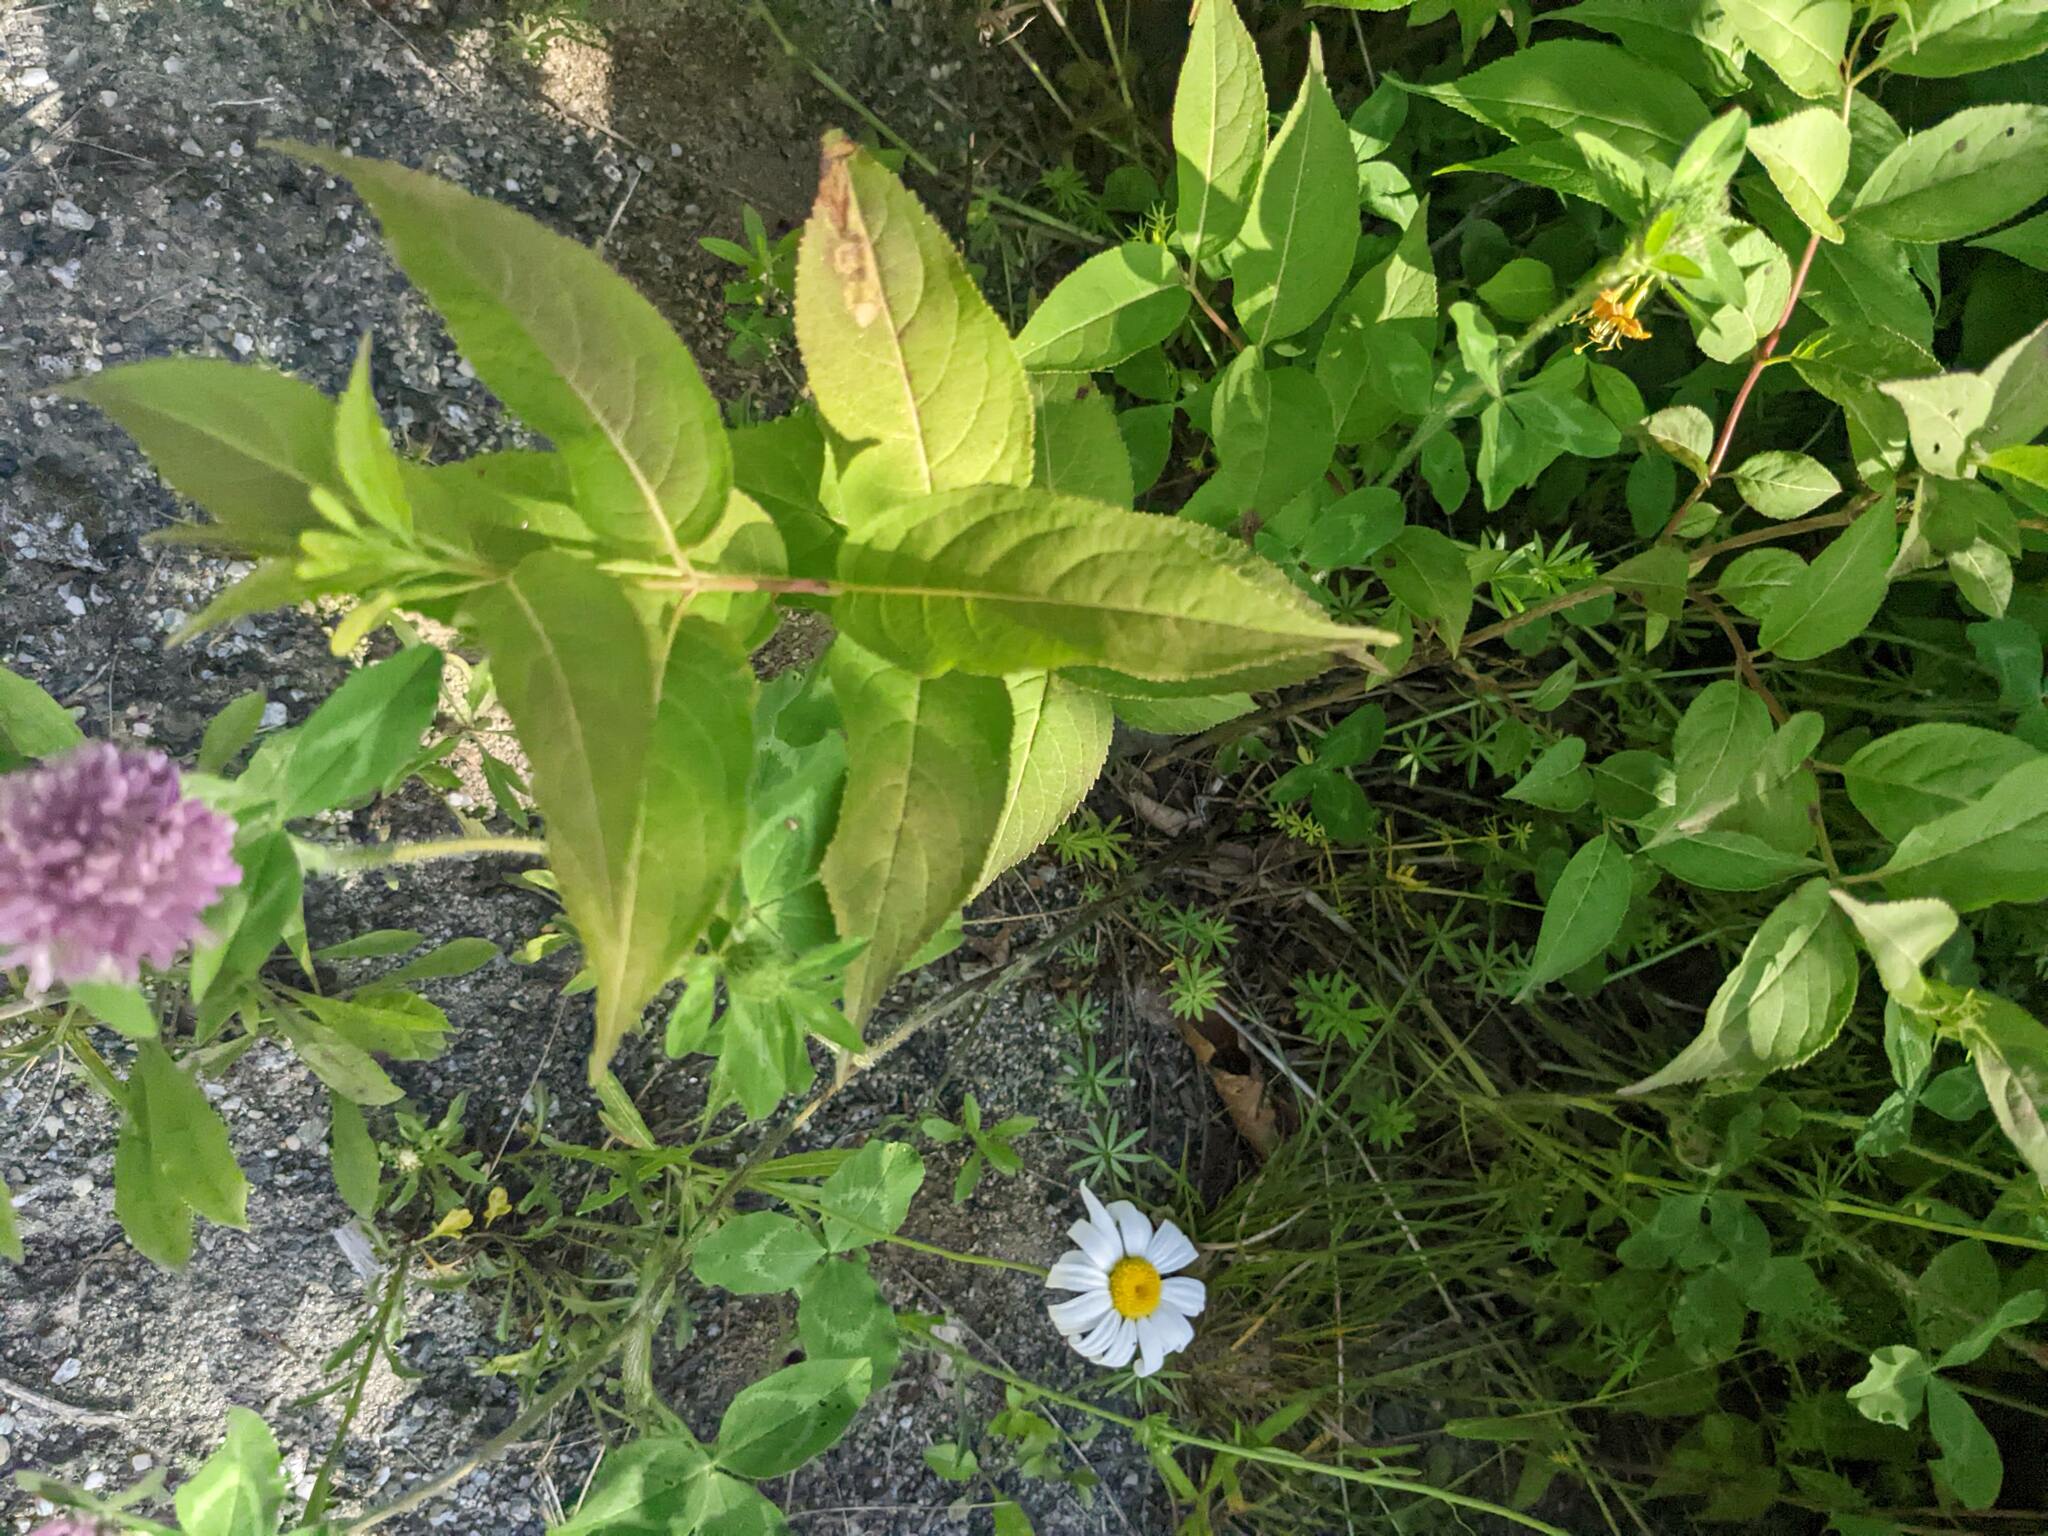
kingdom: Plantae
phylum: Tracheophyta
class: Magnoliopsida
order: Dipsacales
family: Caprifoliaceae
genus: Diervilla
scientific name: Diervilla lonicera
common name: Bush-honeysuckle
